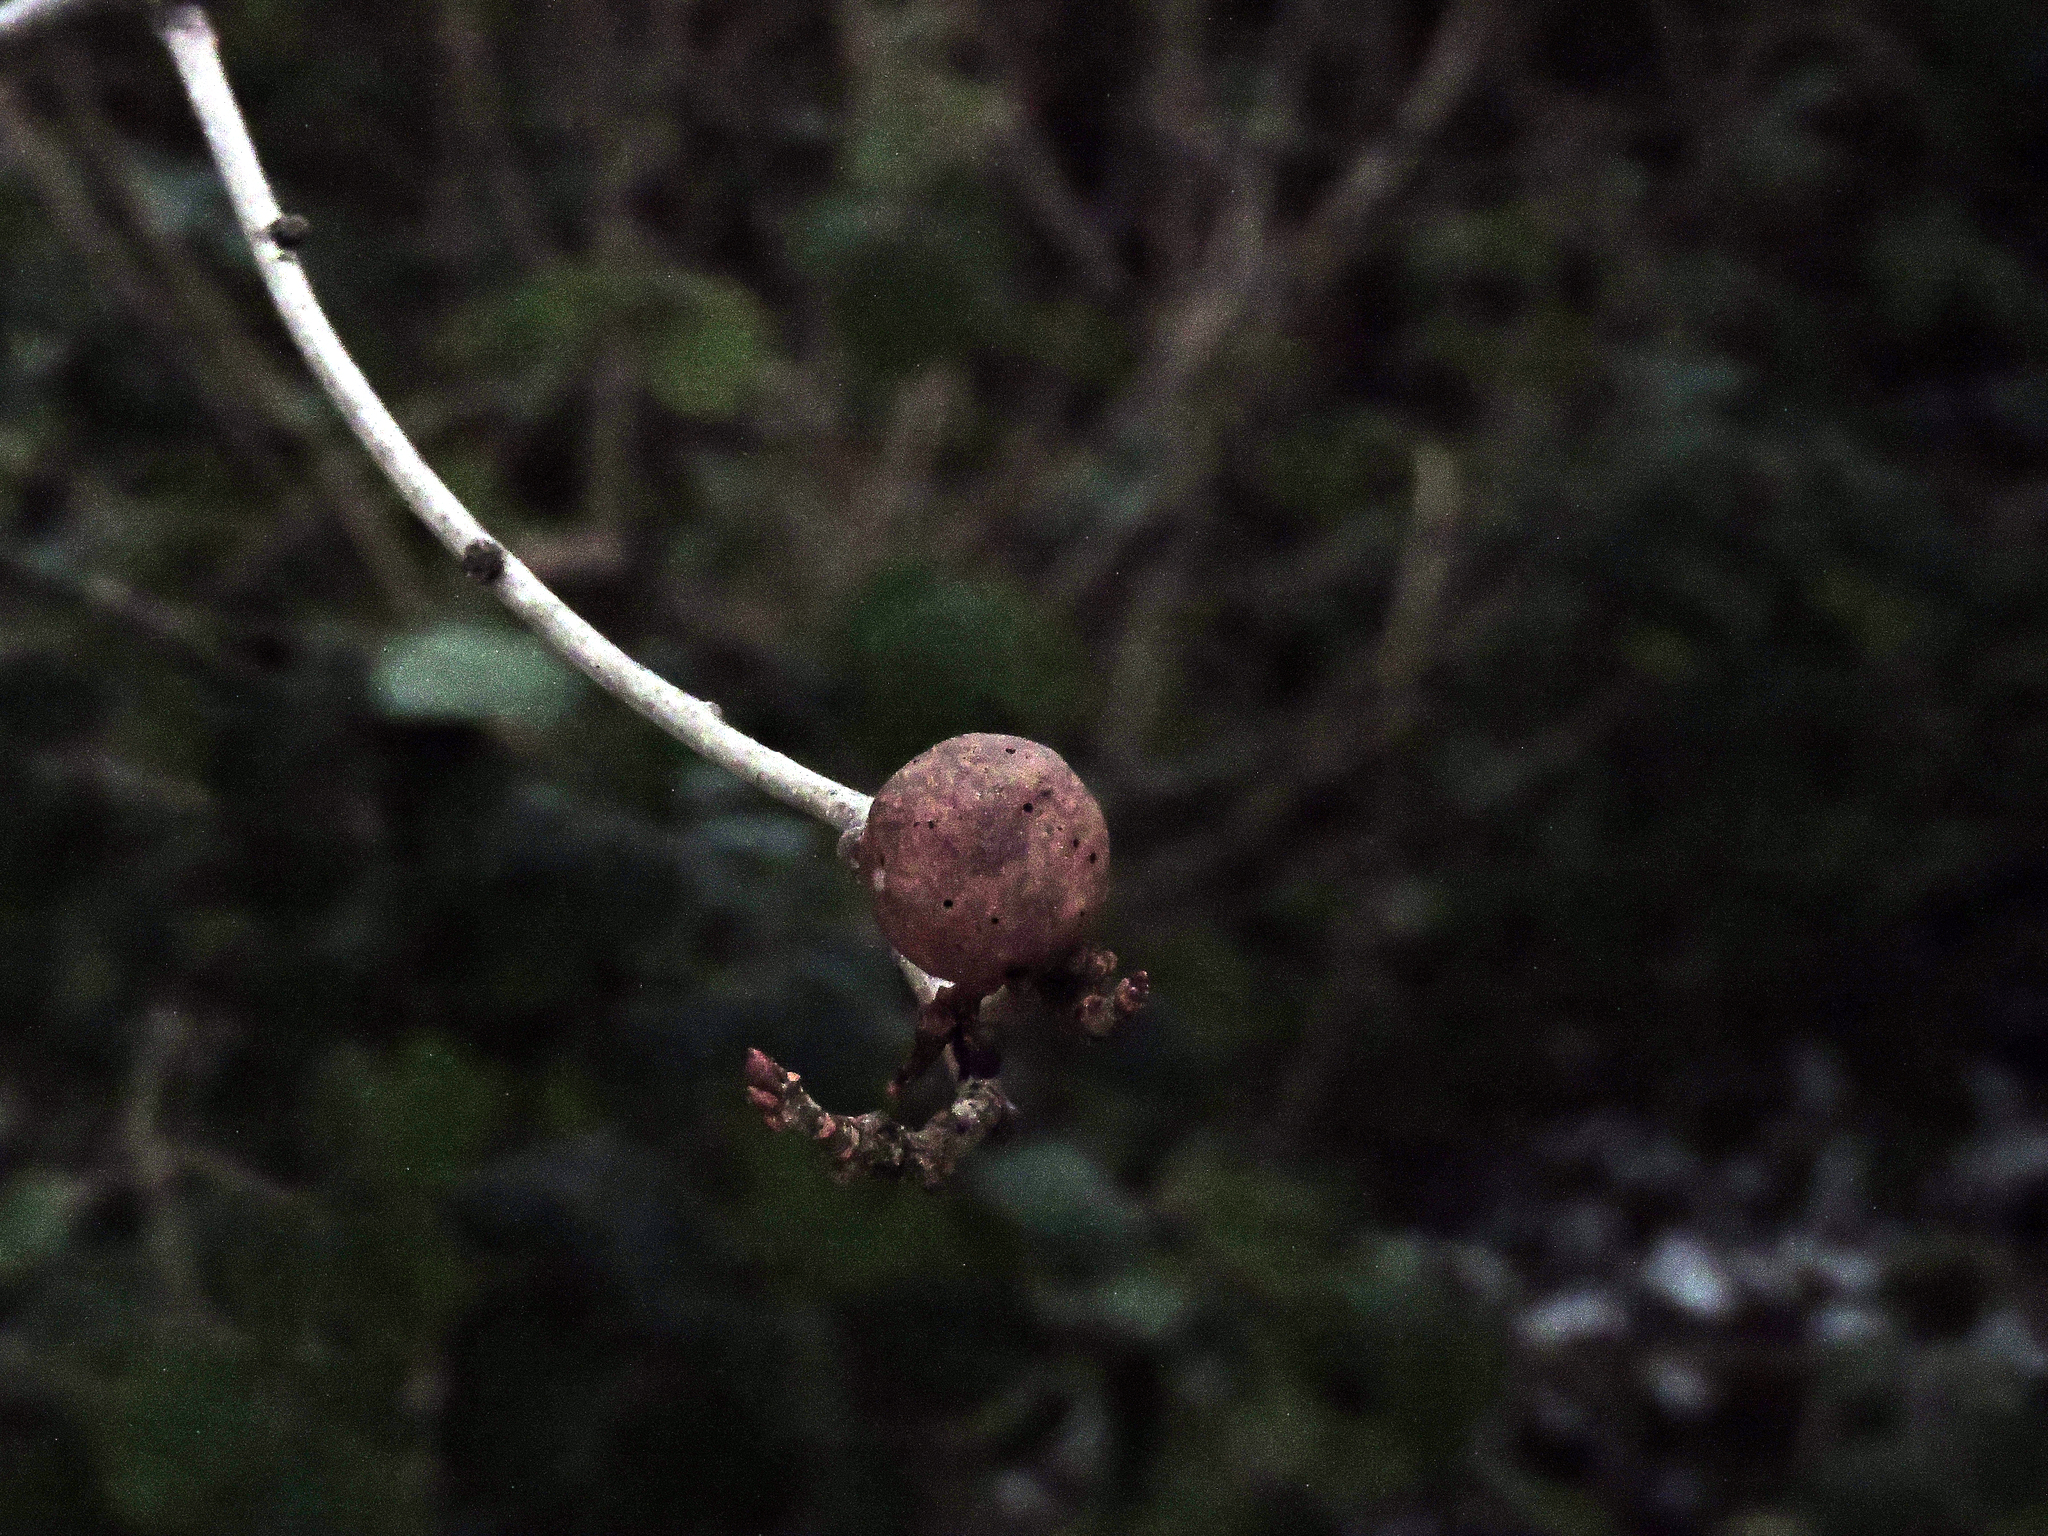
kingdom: Animalia
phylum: Arthropoda
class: Insecta
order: Hymenoptera
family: Cynipidae
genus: Andricus
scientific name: Andricus kollari
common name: Marble gall
